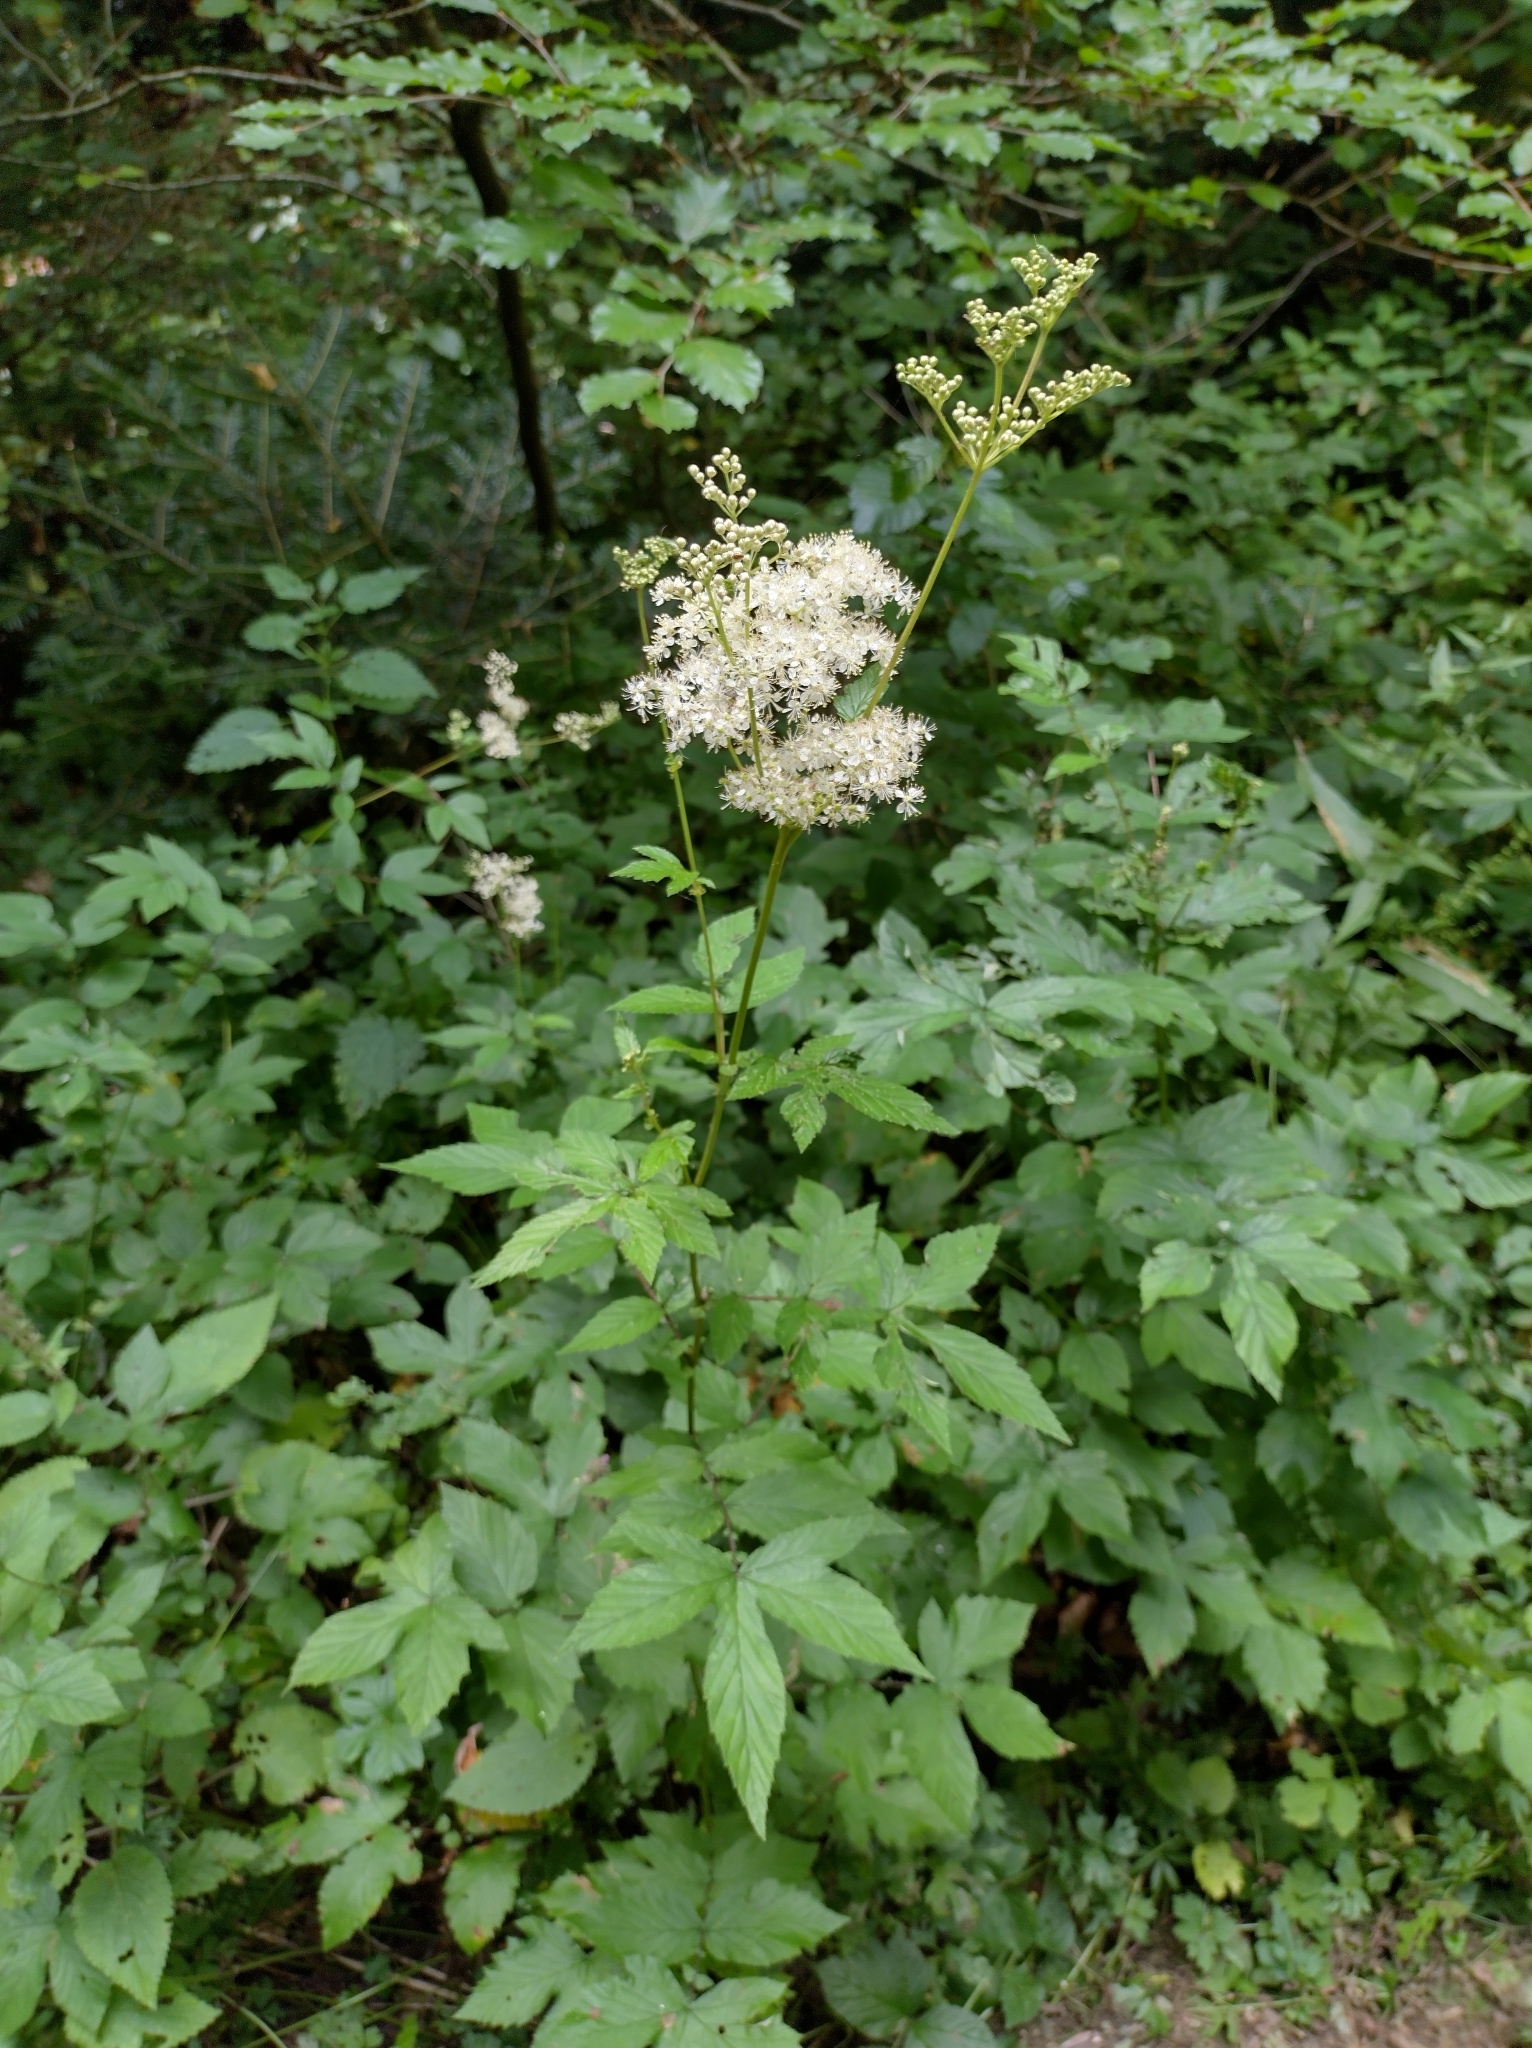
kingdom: Plantae
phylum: Tracheophyta
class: Magnoliopsida
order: Rosales
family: Rosaceae
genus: Filipendula
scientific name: Filipendula ulmaria
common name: Meadowsweet
